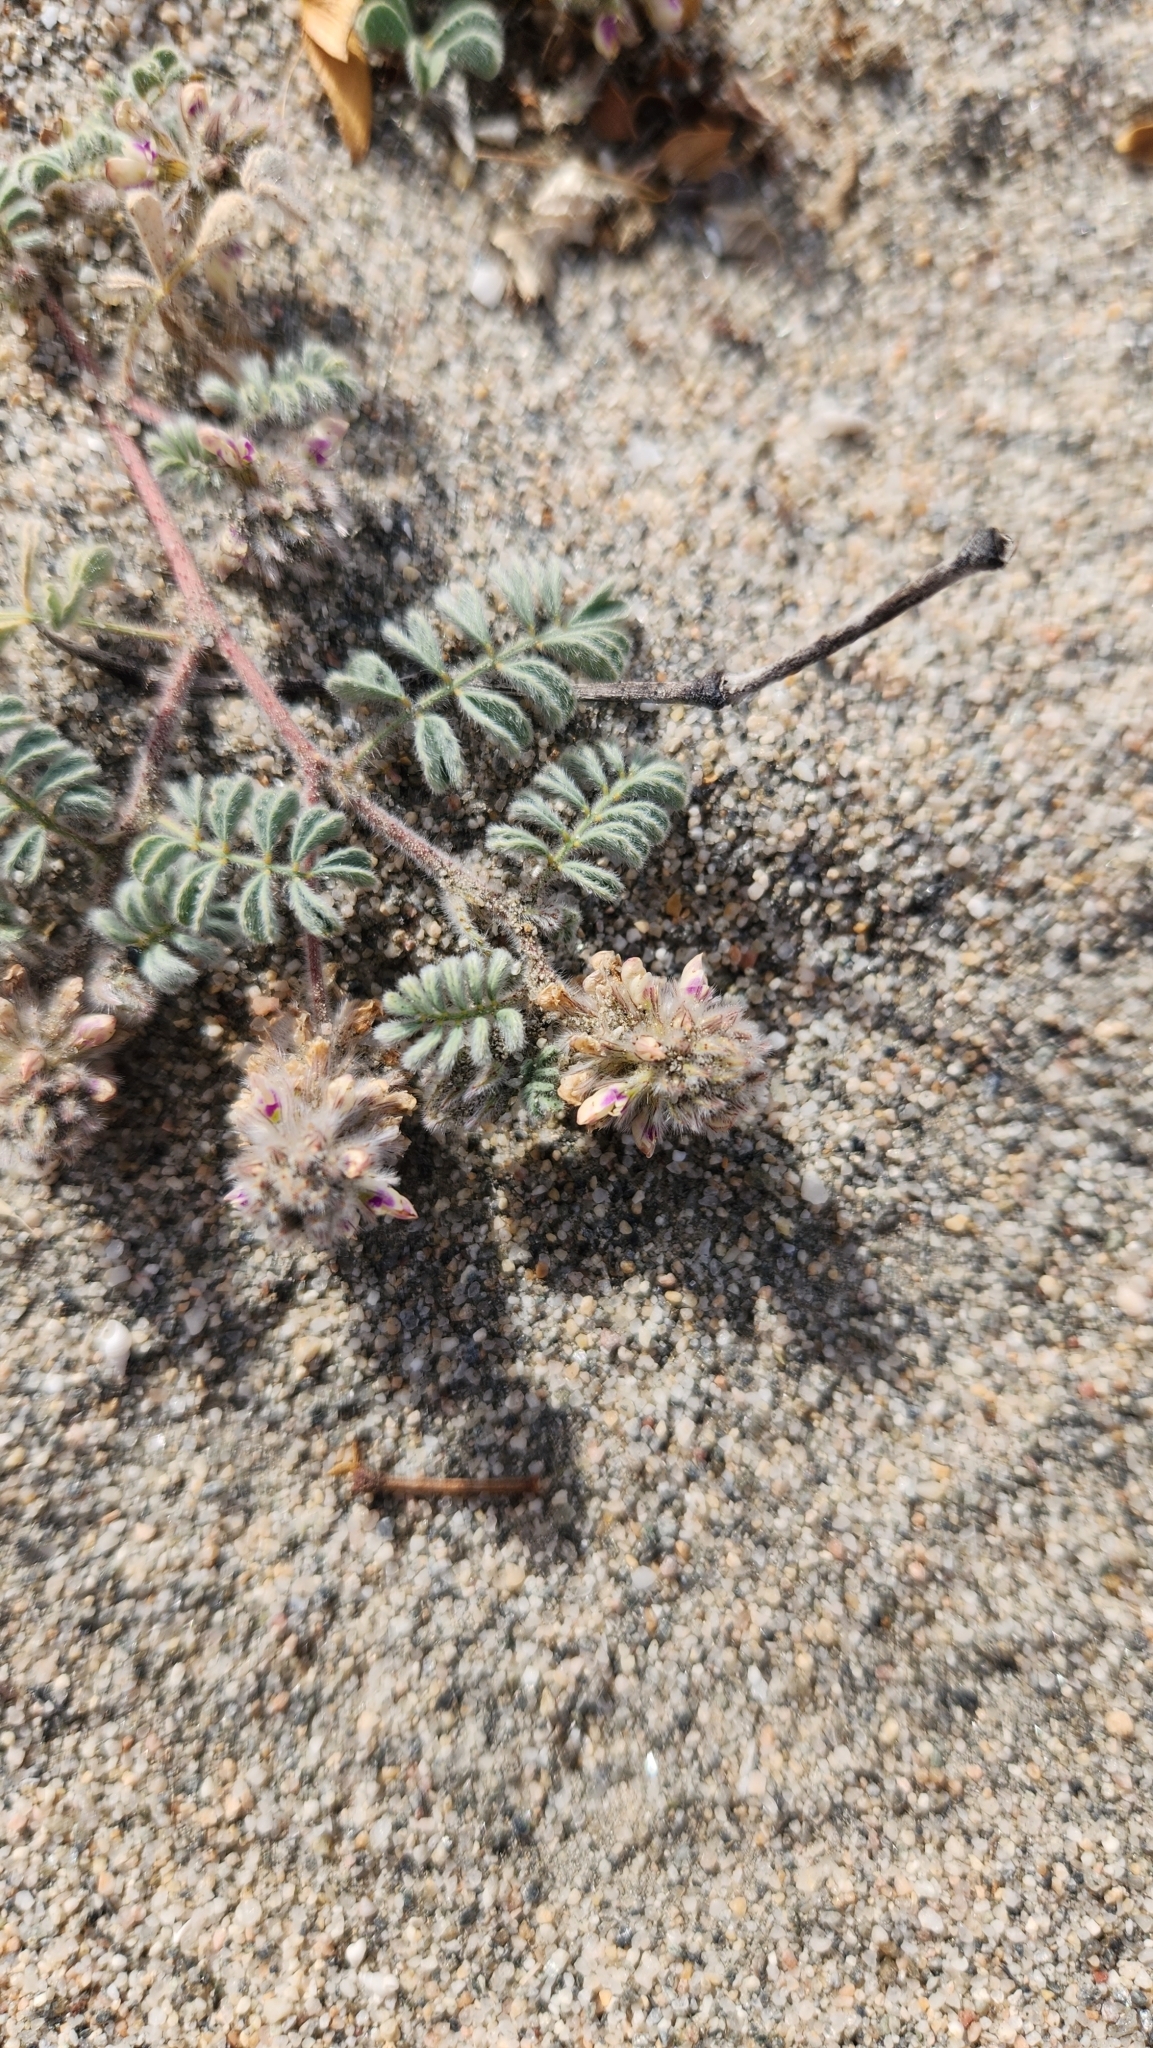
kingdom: Plantae
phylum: Tracheophyta
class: Magnoliopsida
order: Fabales
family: Fabaceae
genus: Dalea
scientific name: Dalea mollissima
